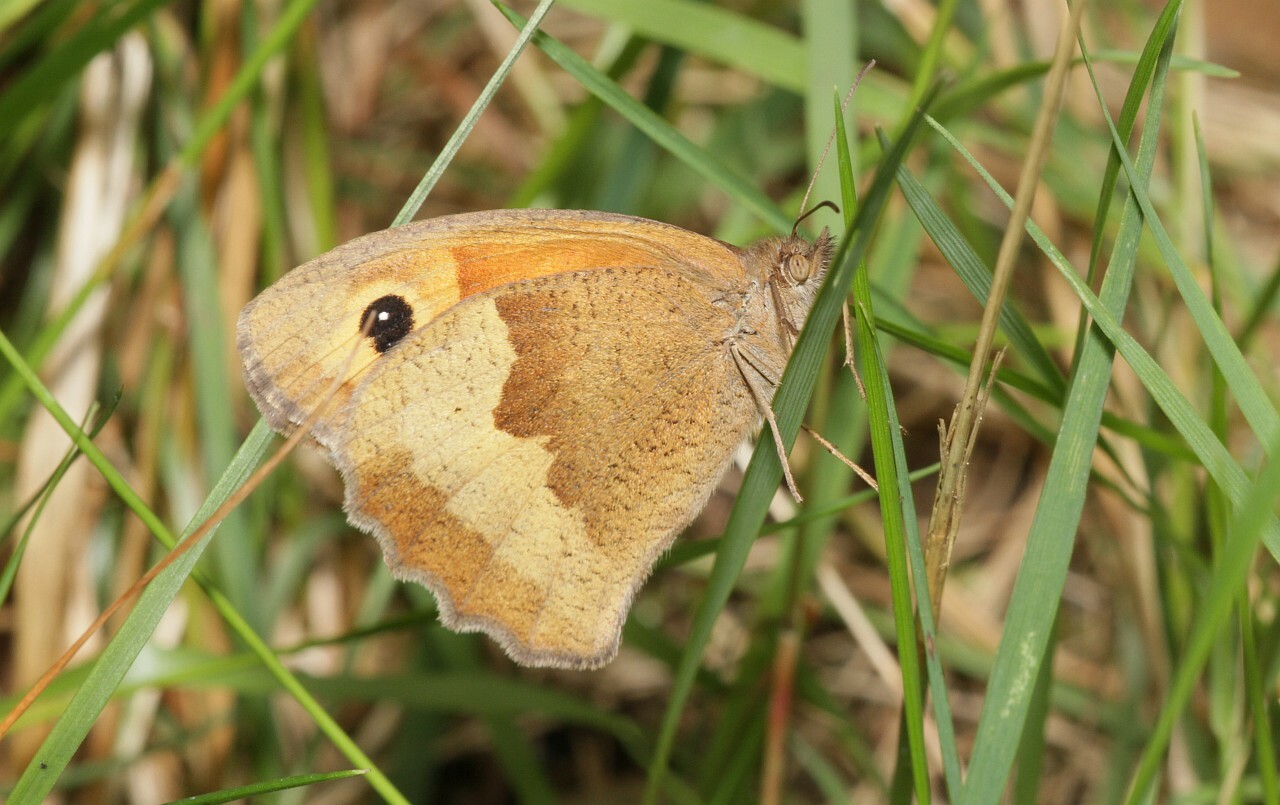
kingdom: Animalia
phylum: Arthropoda
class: Insecta
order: Lepidoptera
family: Nymphalidae
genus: Maniola
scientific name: Maniola jurtina
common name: Meadow brown
